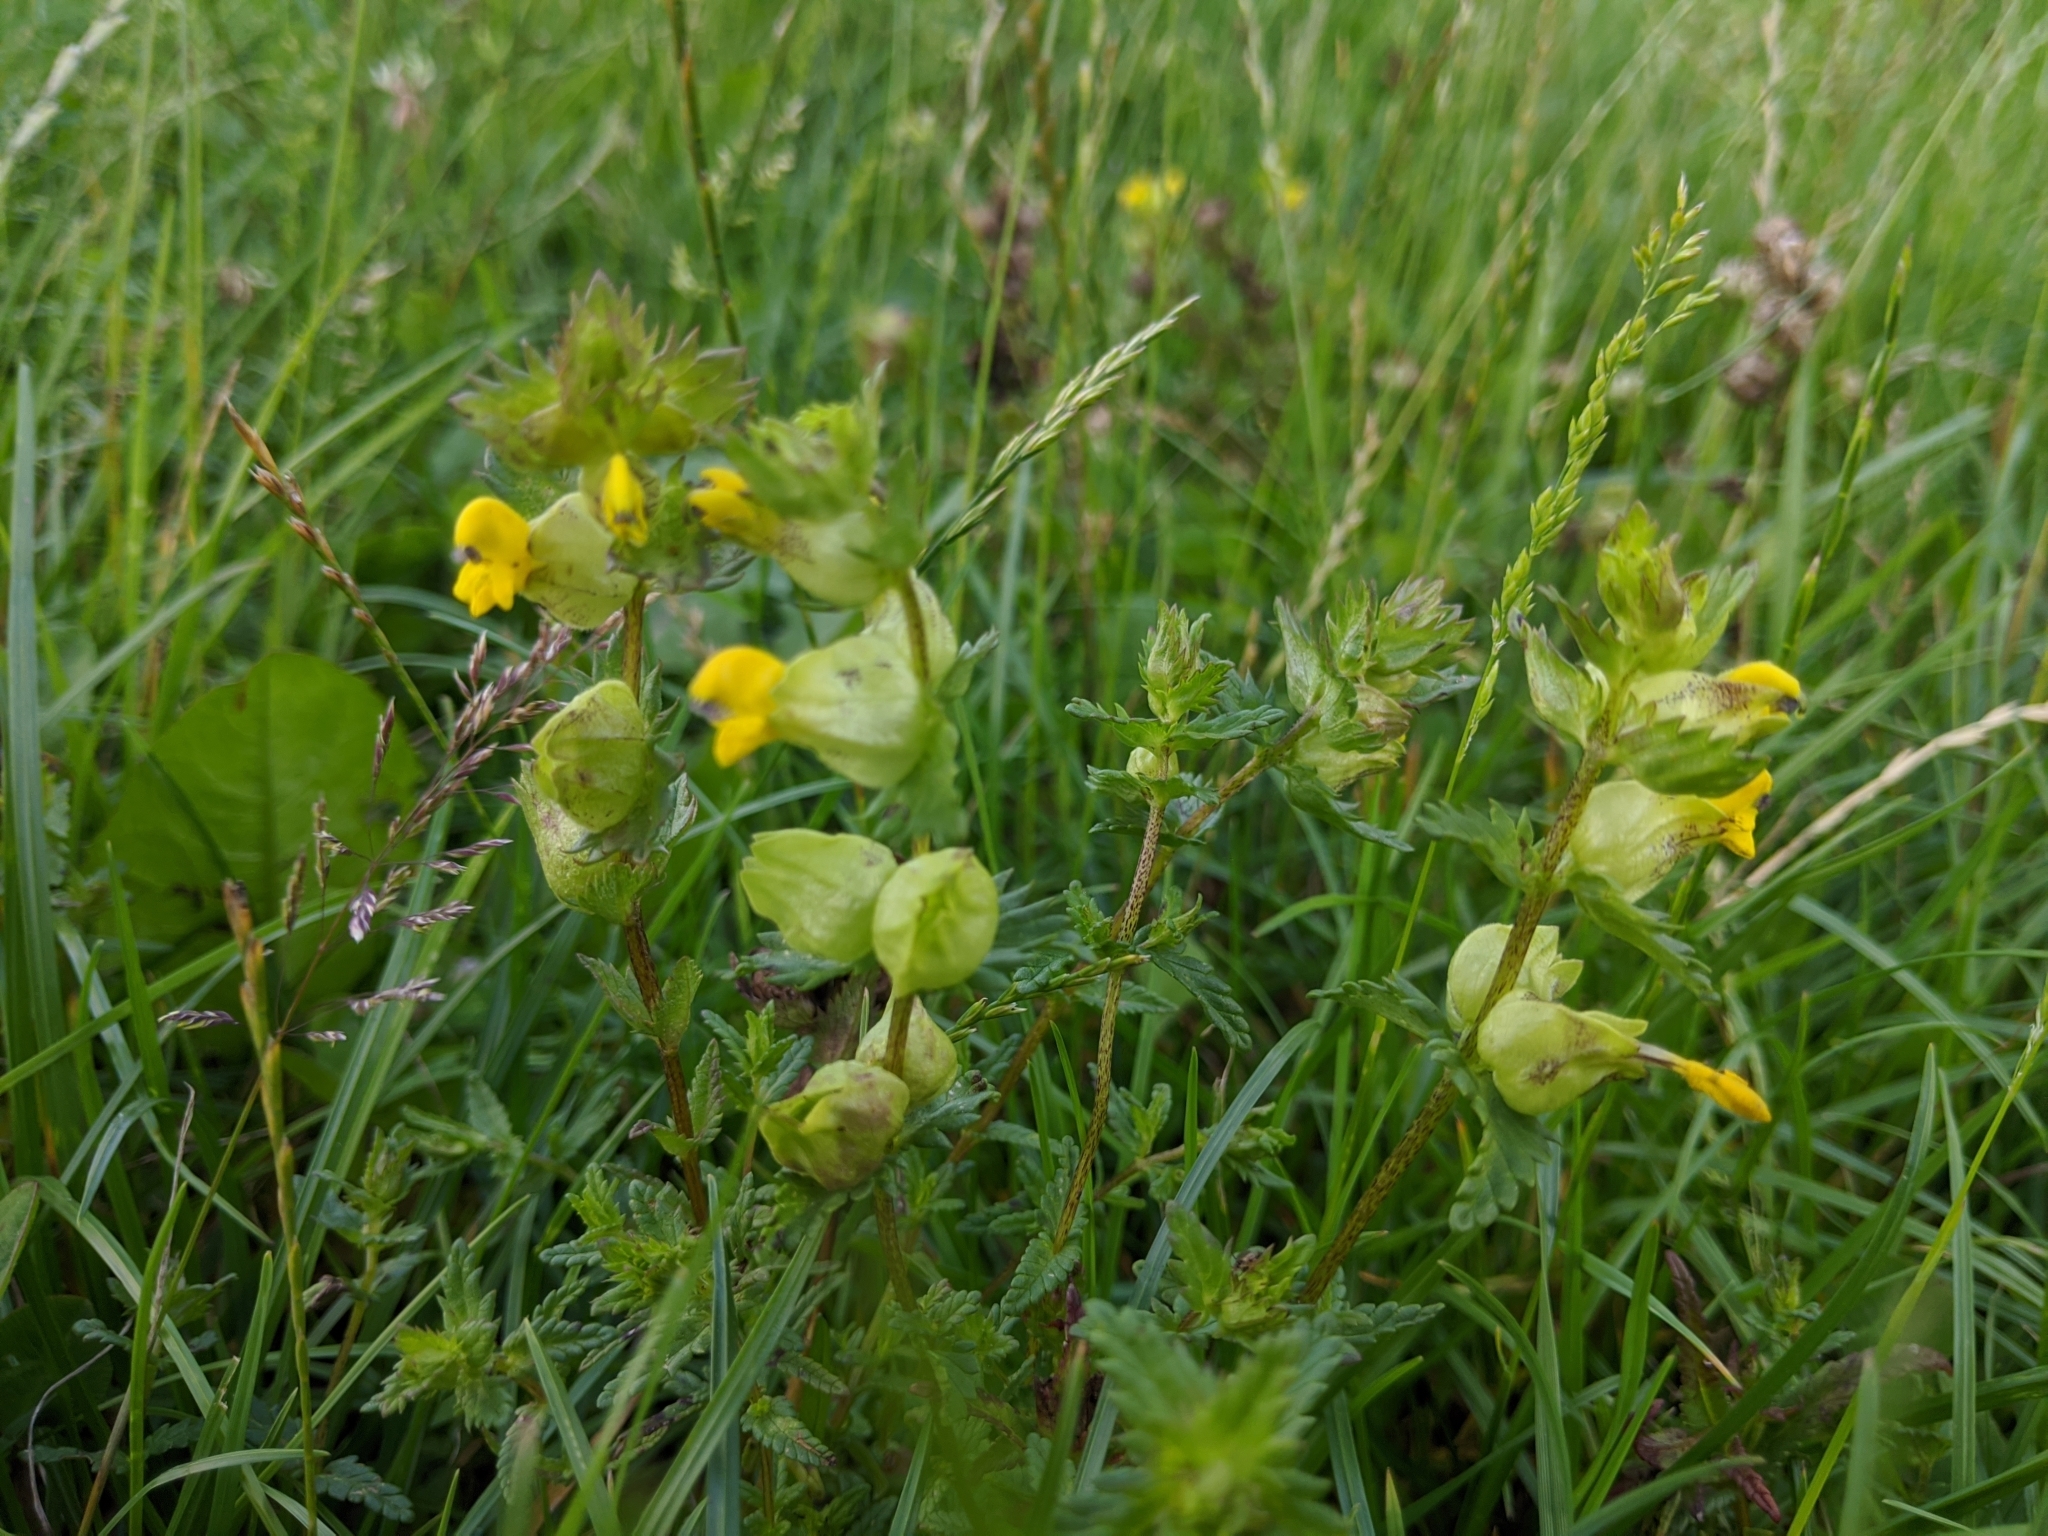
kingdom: Plantae
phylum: Tracheophyta
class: Magnoliopsida
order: Lamiales
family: Orobanchaceae
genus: Rhinanthus
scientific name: Rhinanthus minor
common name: Yellow-rattle
